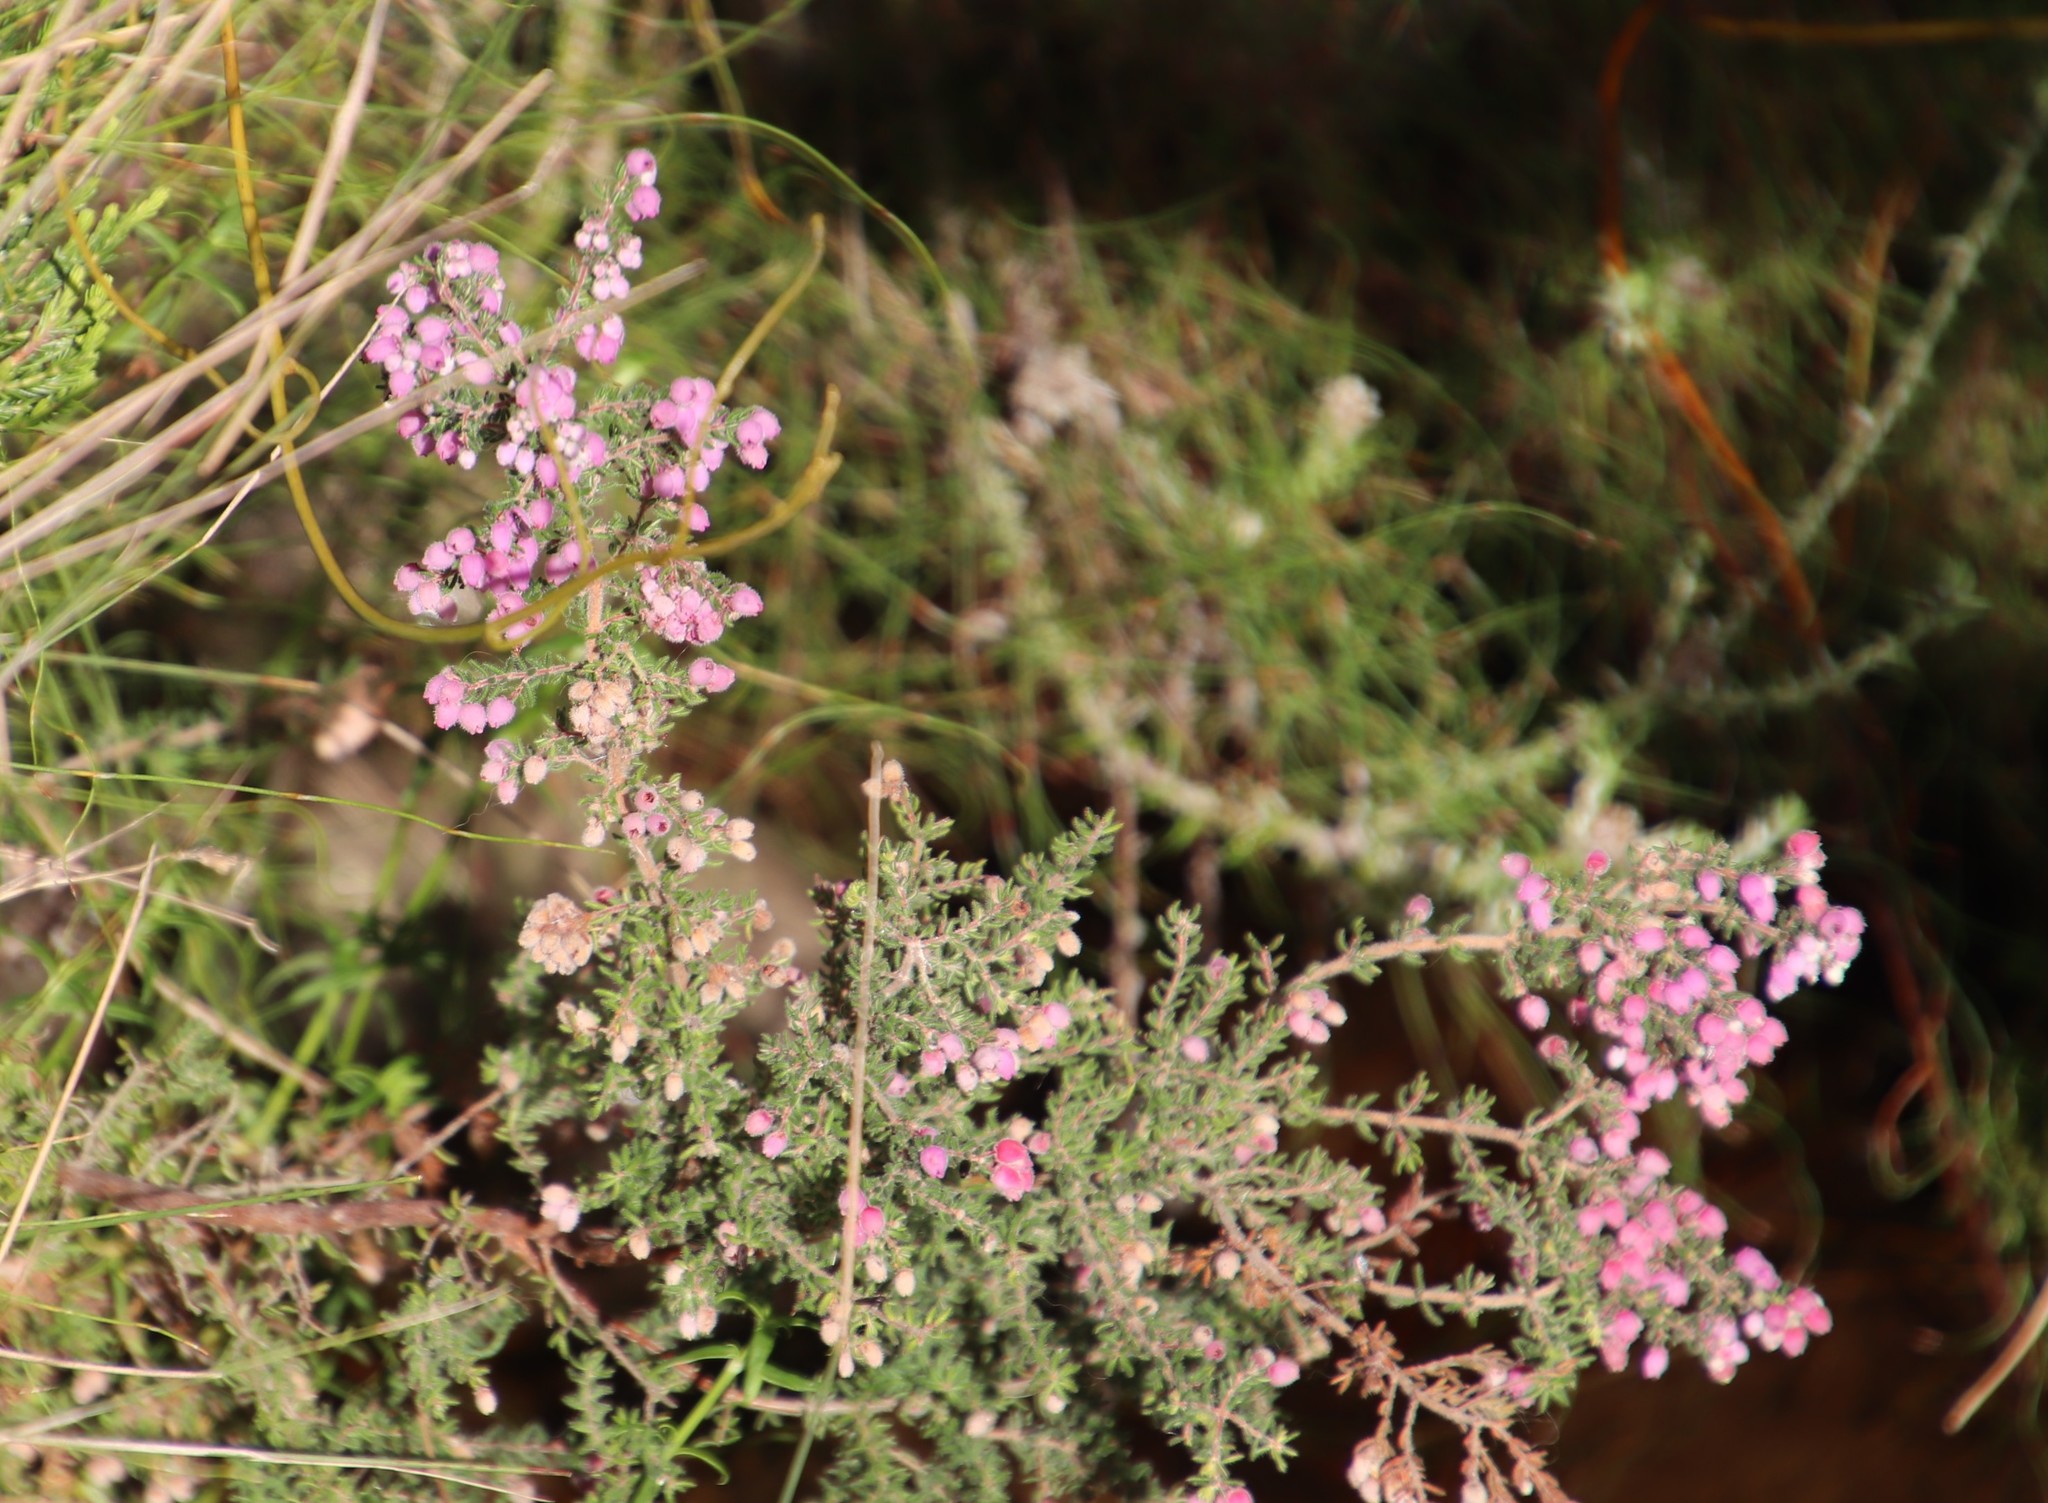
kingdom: Plantae
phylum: Tracheophyta
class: Magnoliopsida
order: Ericales
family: Ericaceae
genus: Erica
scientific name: Erica hirtiflora
